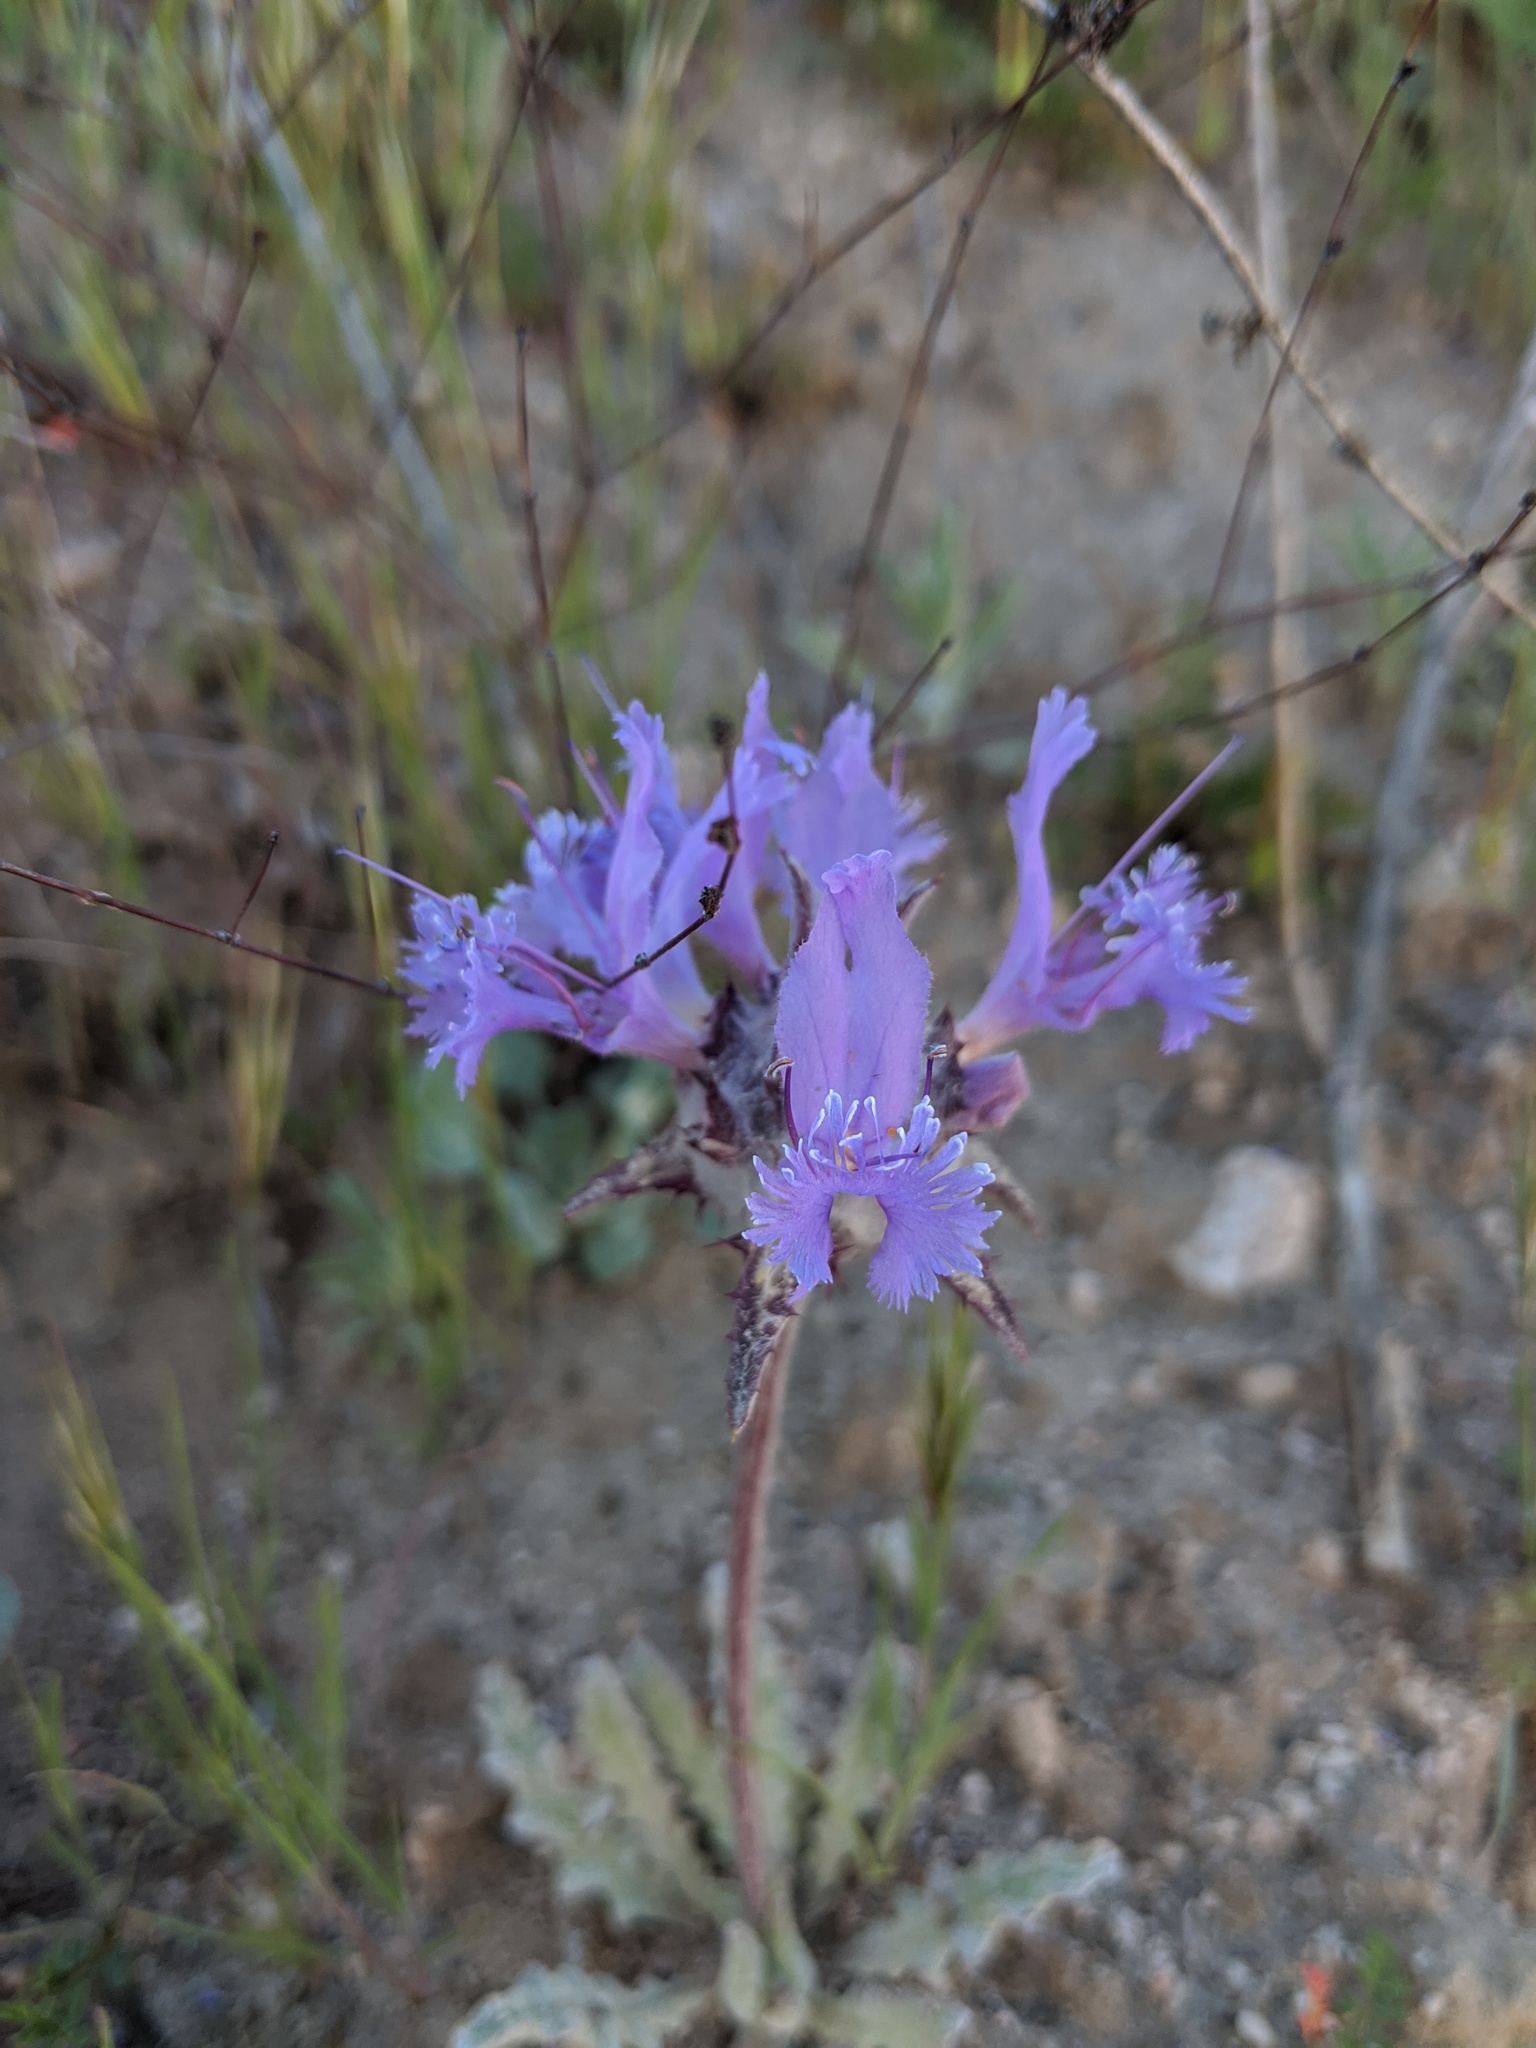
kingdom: Plantae
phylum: Tracheophyta
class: Magnoliopsida
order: Lamiales
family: Lamiaceae
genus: Salvia
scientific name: Salvia carduacea
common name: Thistle sage
